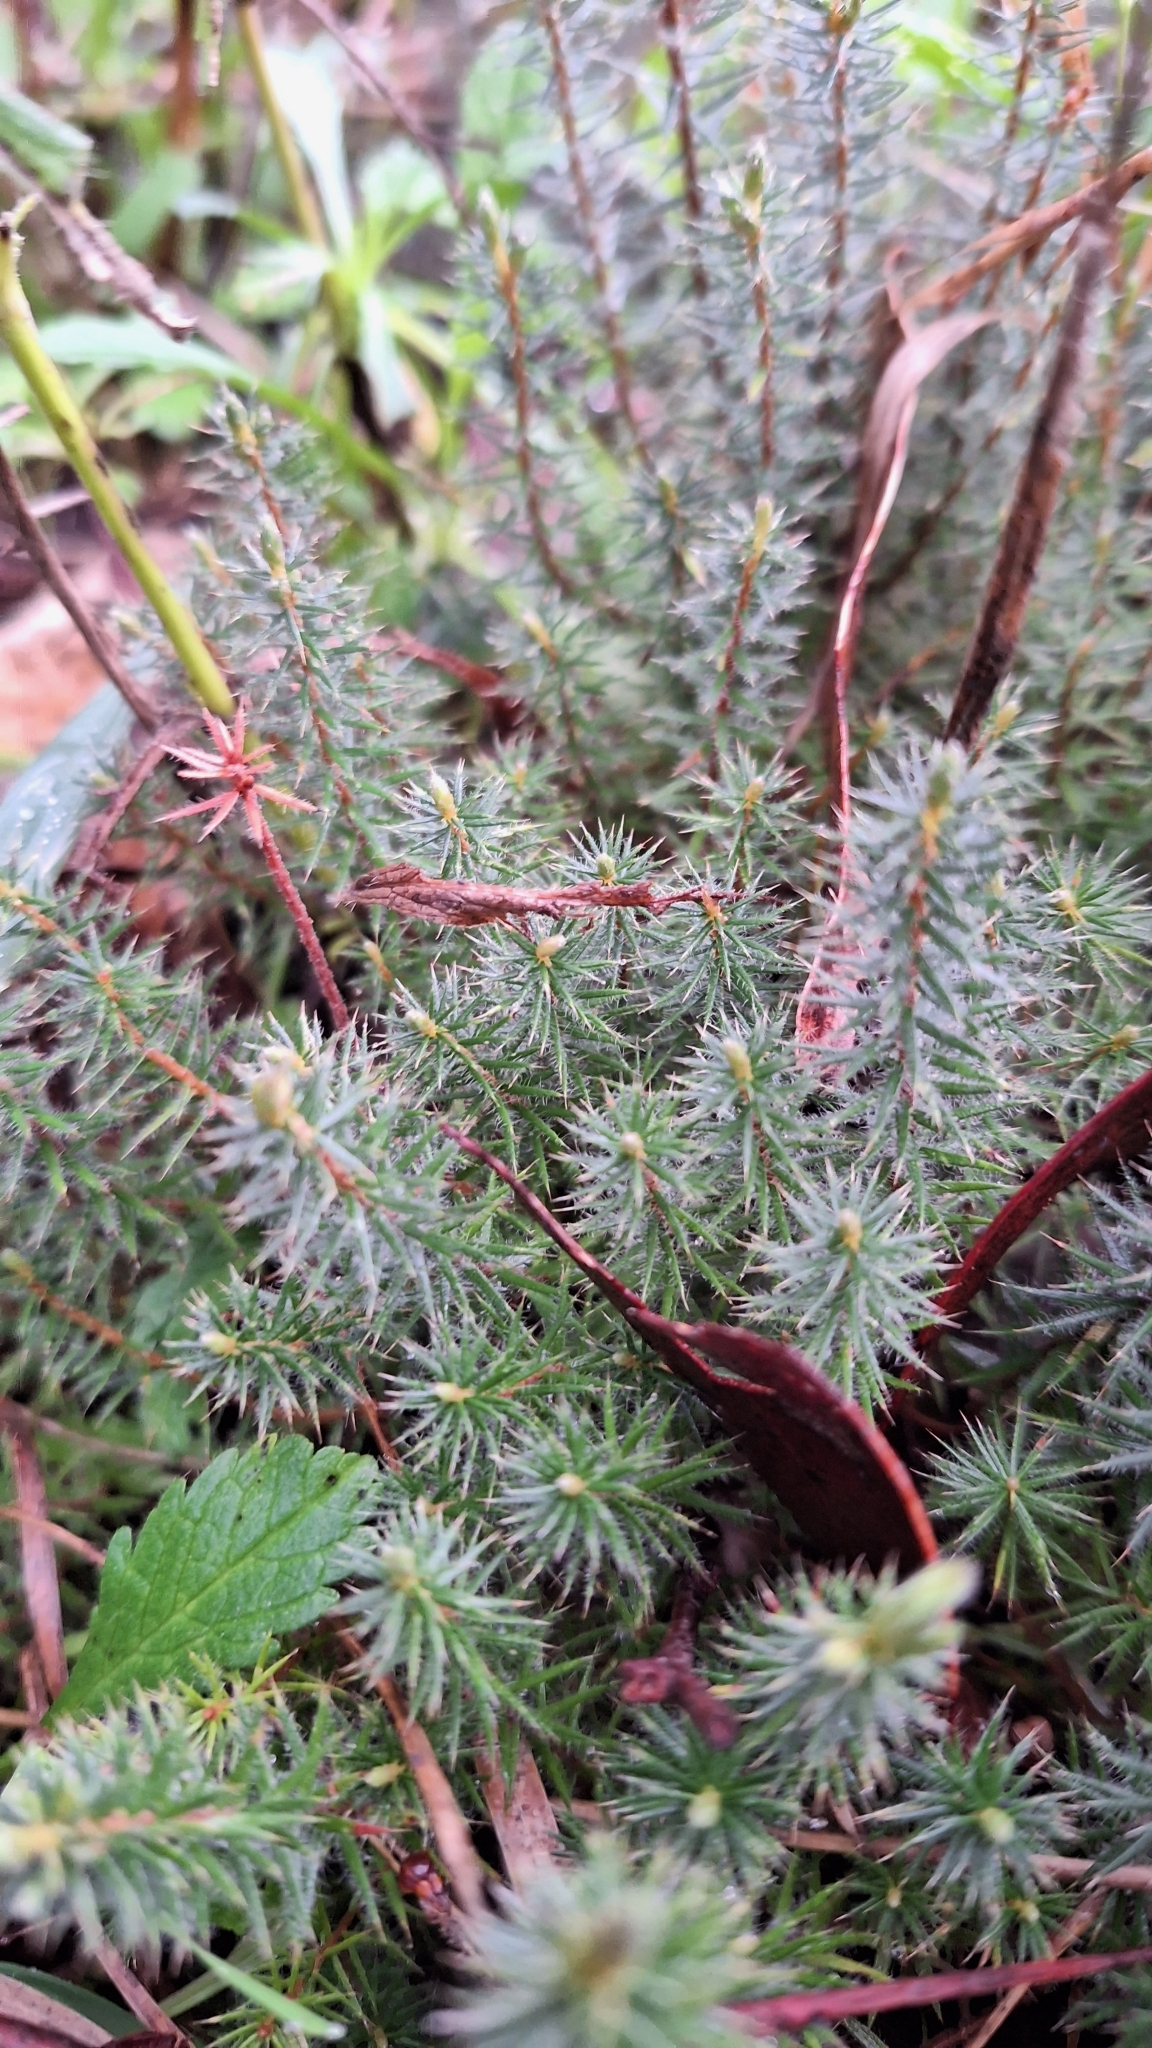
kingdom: Plantae
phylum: Tracheophyta
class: Magnoliopsida
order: Ericales
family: Ericaceae
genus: Acrotriche
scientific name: Acrotriche serrulata
